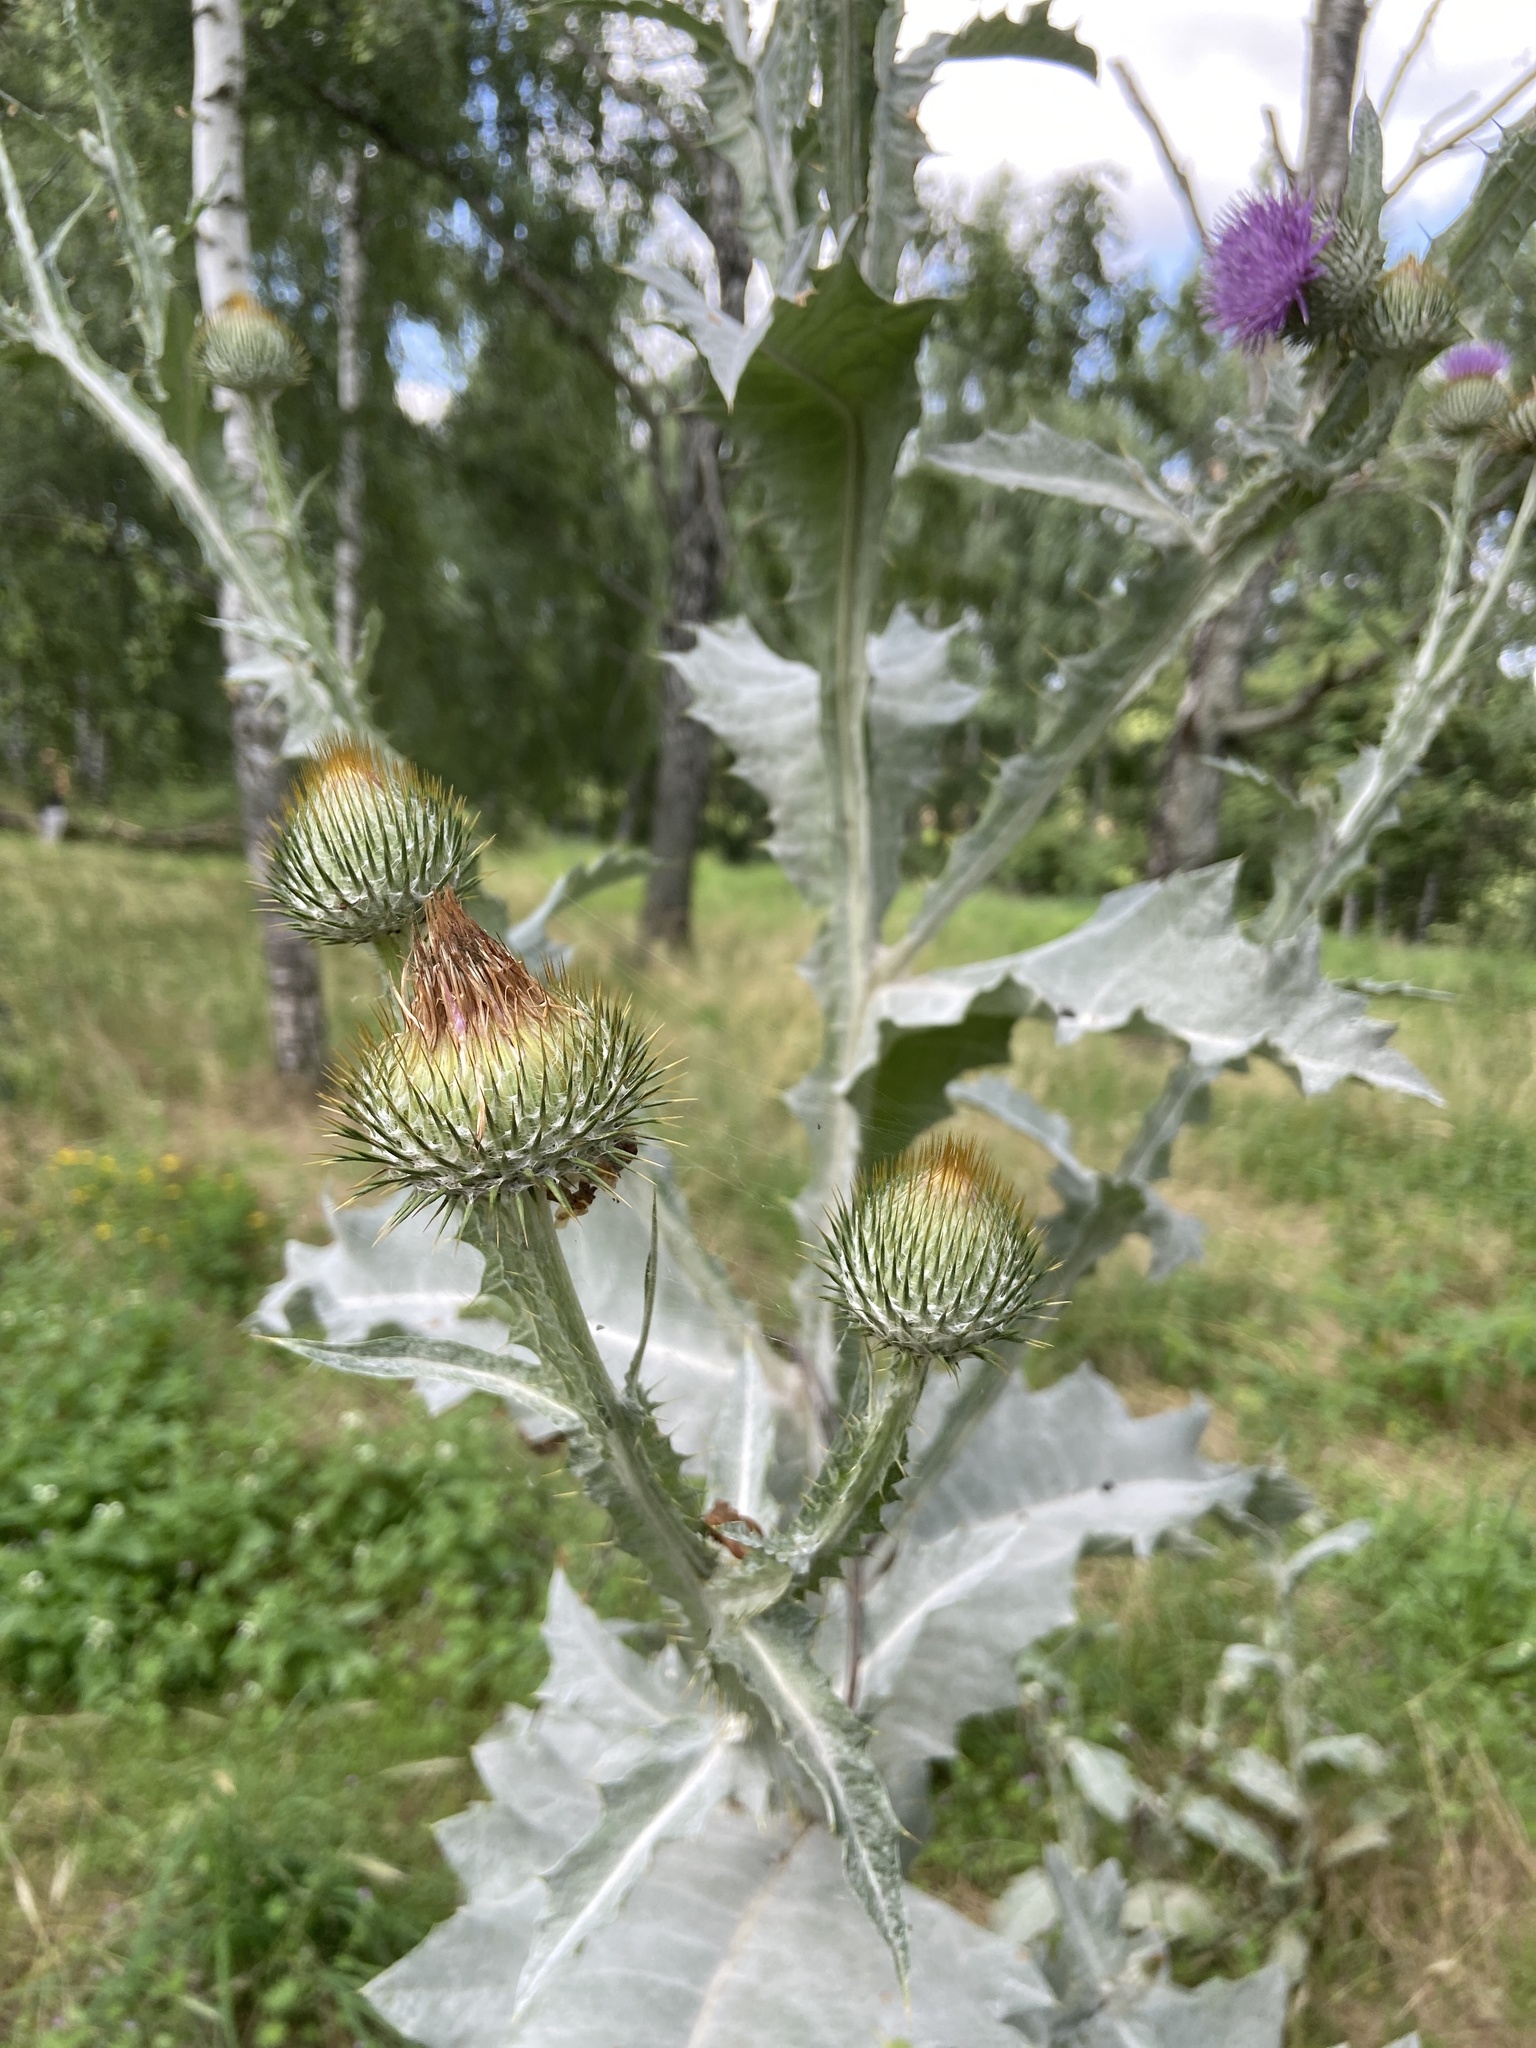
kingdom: Plantae
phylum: Tracheophyta
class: Magnoliopsida
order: Asterales
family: Asteraceae
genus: Onopordum
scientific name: Onopordum acanthium
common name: Scotch thistle
